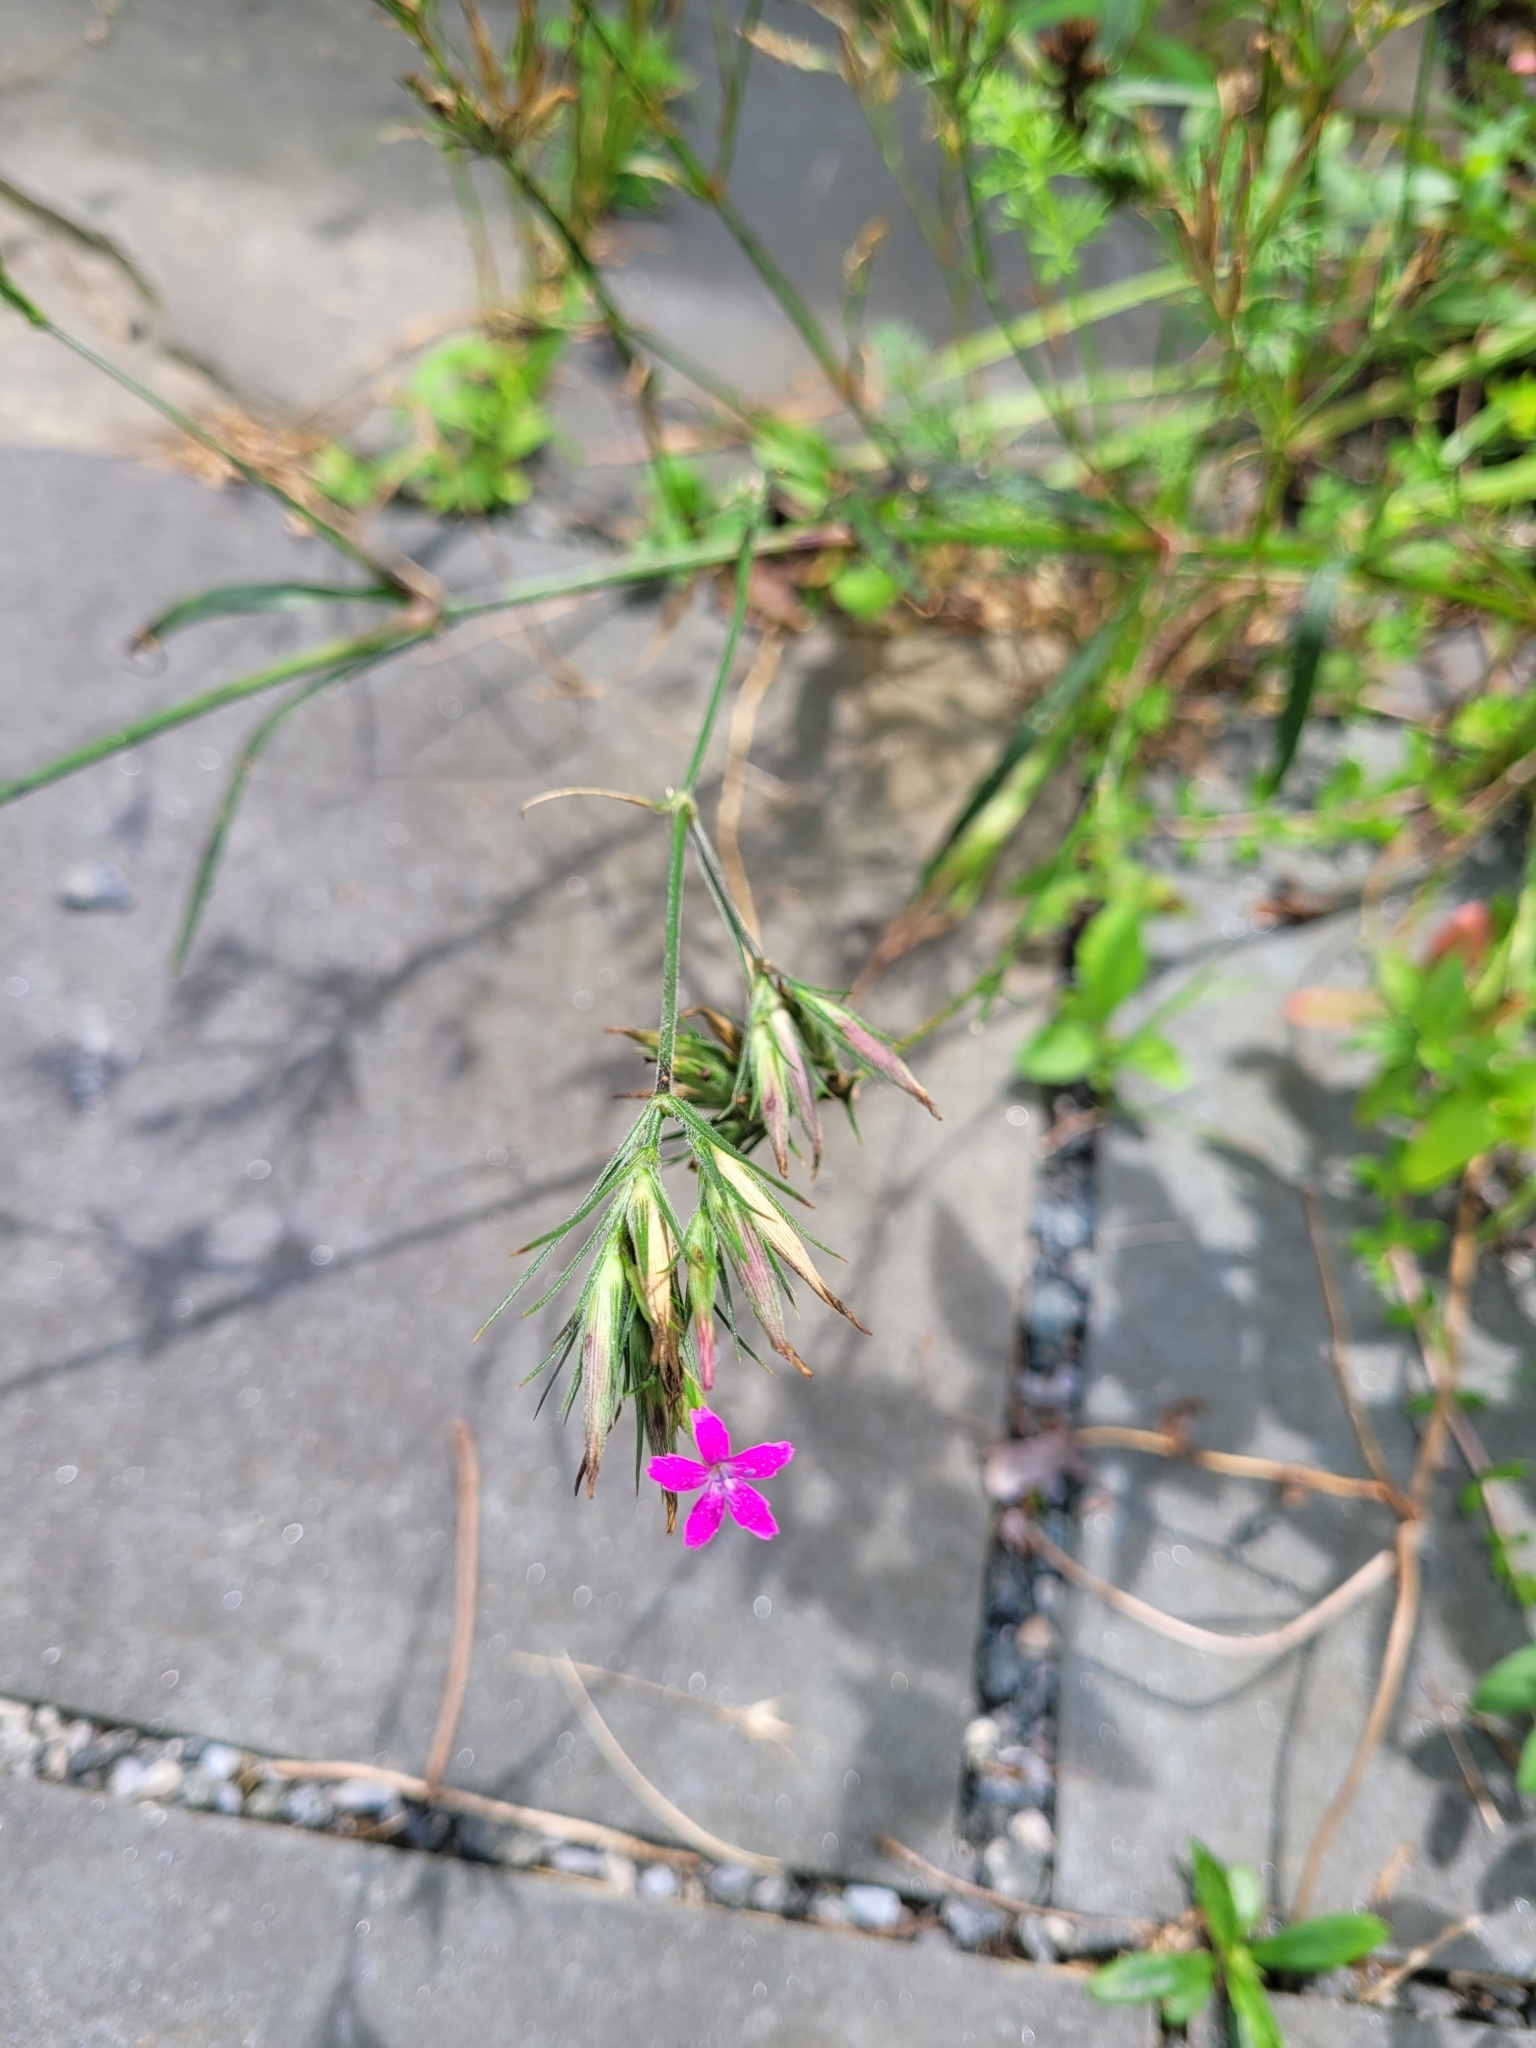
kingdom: Plantae
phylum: Tracheophyta
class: Magnoliopsida
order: Caryophyllales
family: Caryophyllaceae
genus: Dianthus
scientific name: Dianthus armeria
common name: Deptford pink
